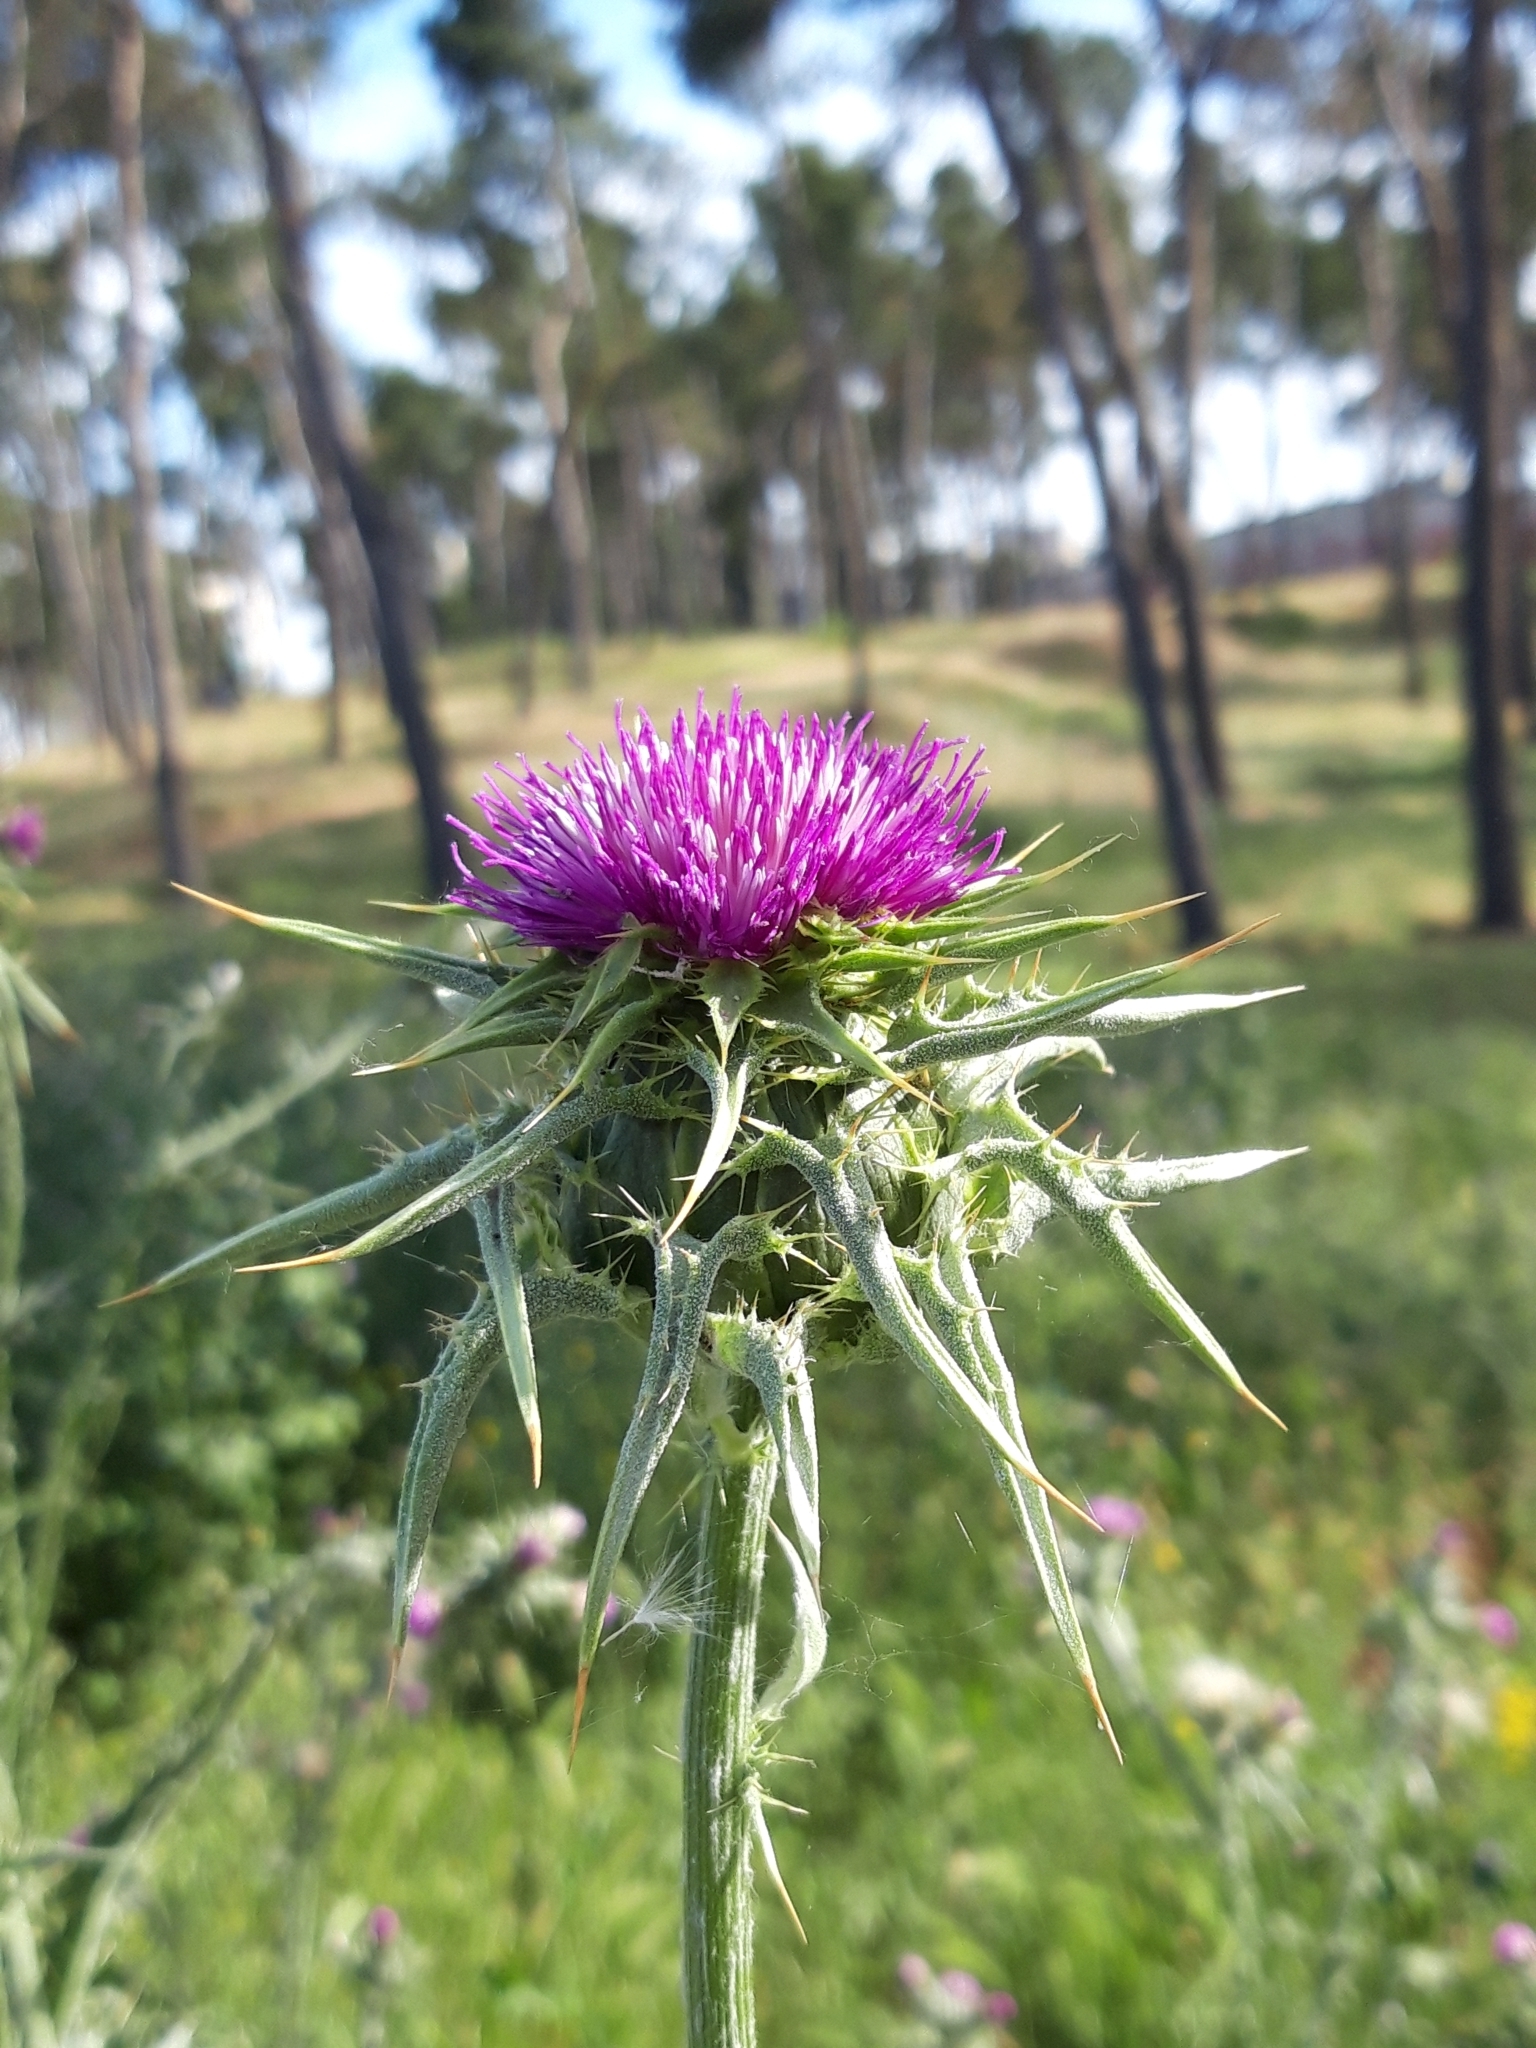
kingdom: Plantae
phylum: Tracheophyta
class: Magnoliopsida
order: Asterales
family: Asteraceae
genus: Silybum
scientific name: Silybum marianum
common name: Milk thistle
